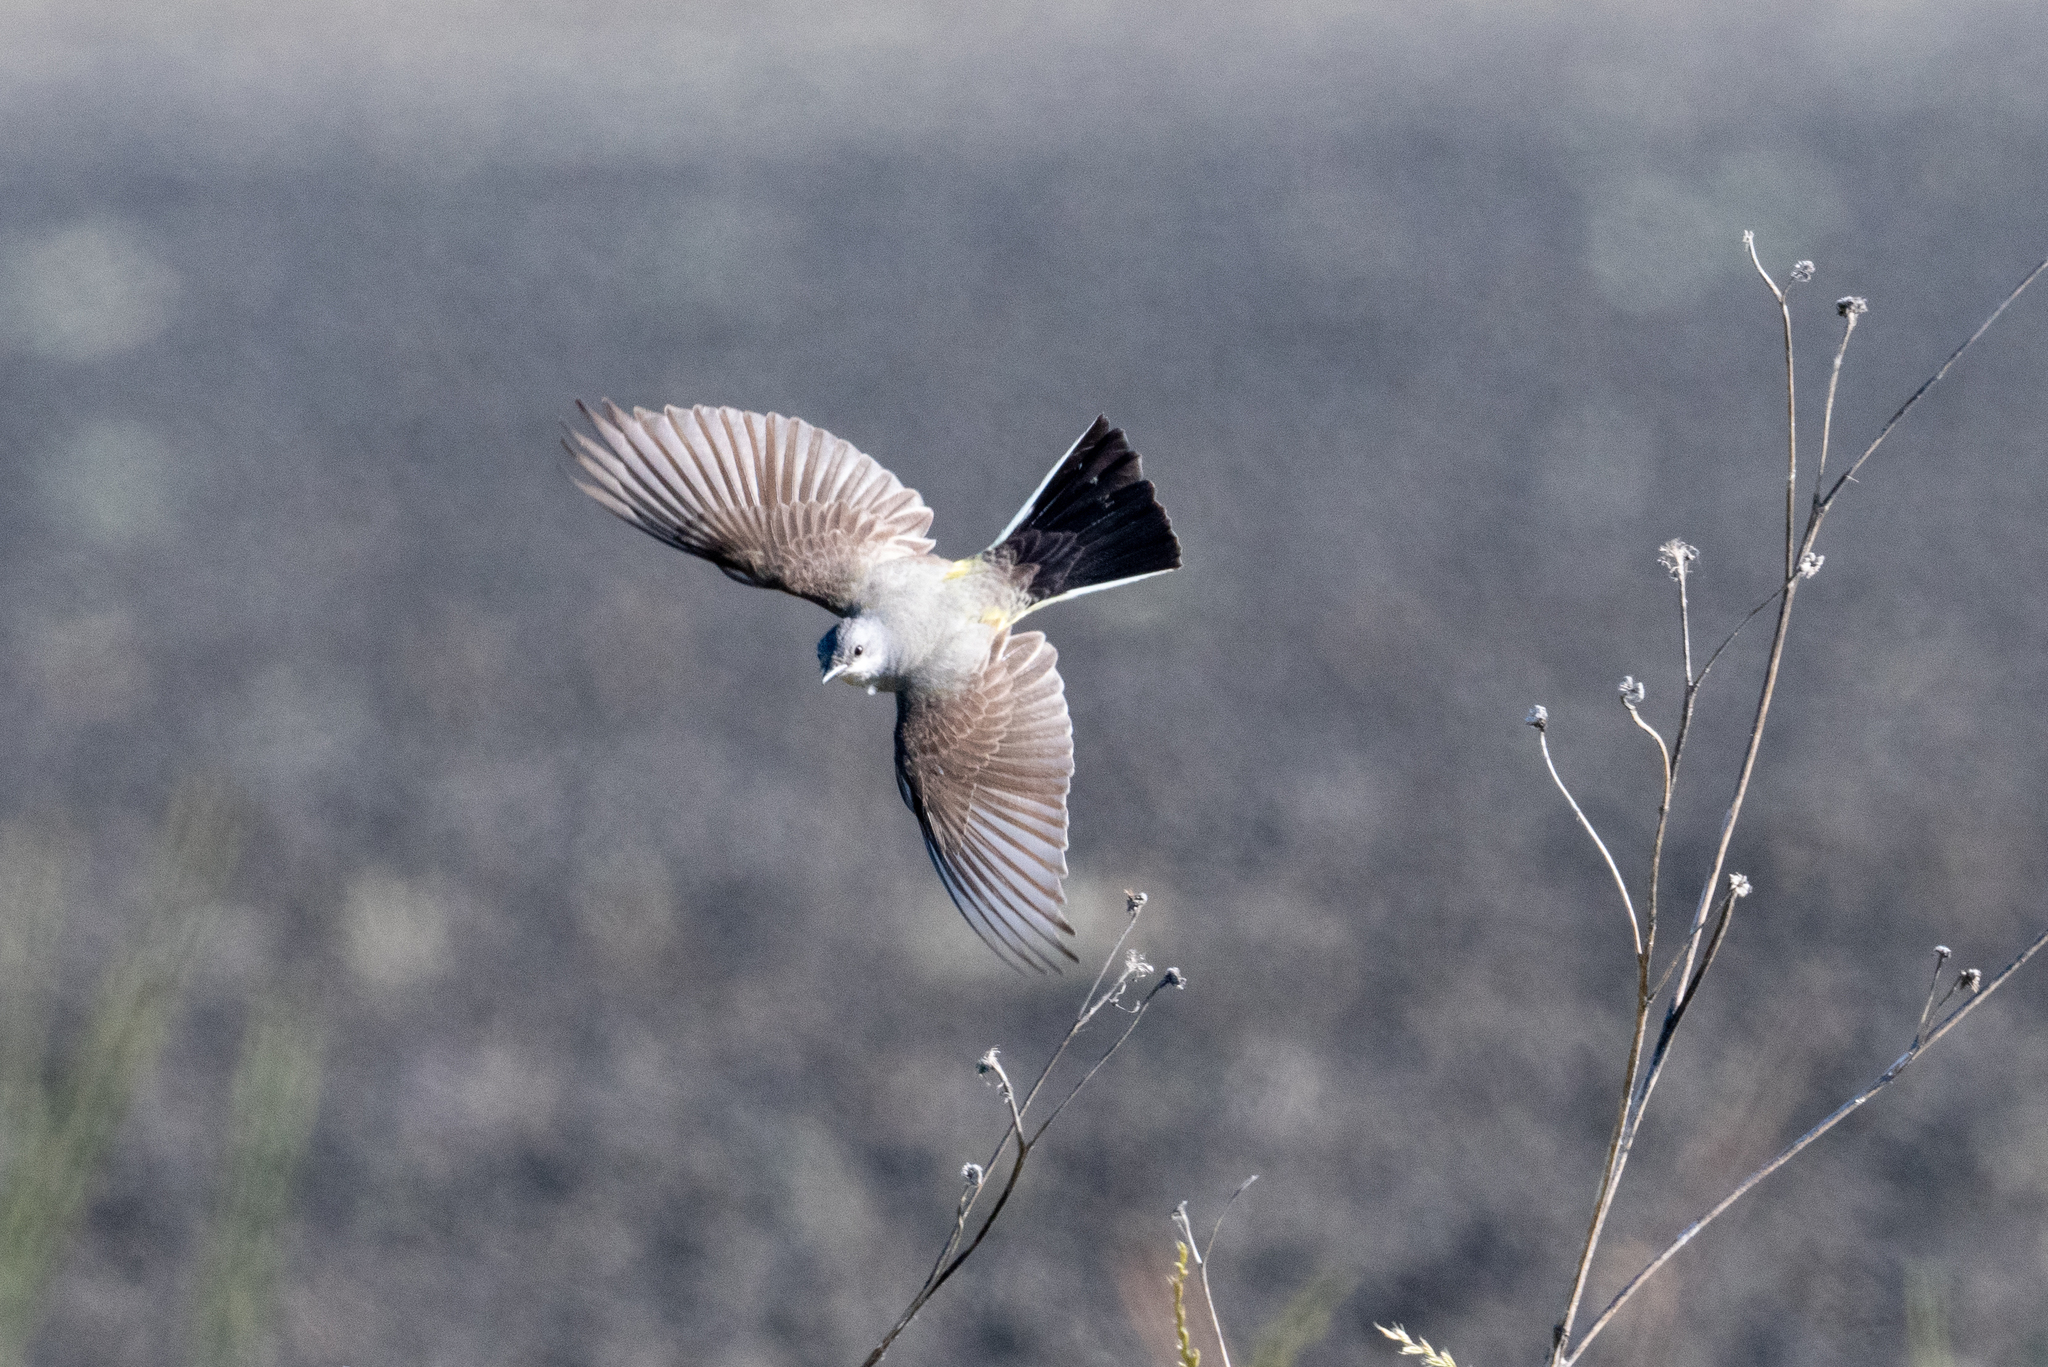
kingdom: Animalia
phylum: Chordata
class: Aves
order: Passeriformes
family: Tyrannidae
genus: Tyrannus
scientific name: Tyrannus verticalis
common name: Western kingbird
